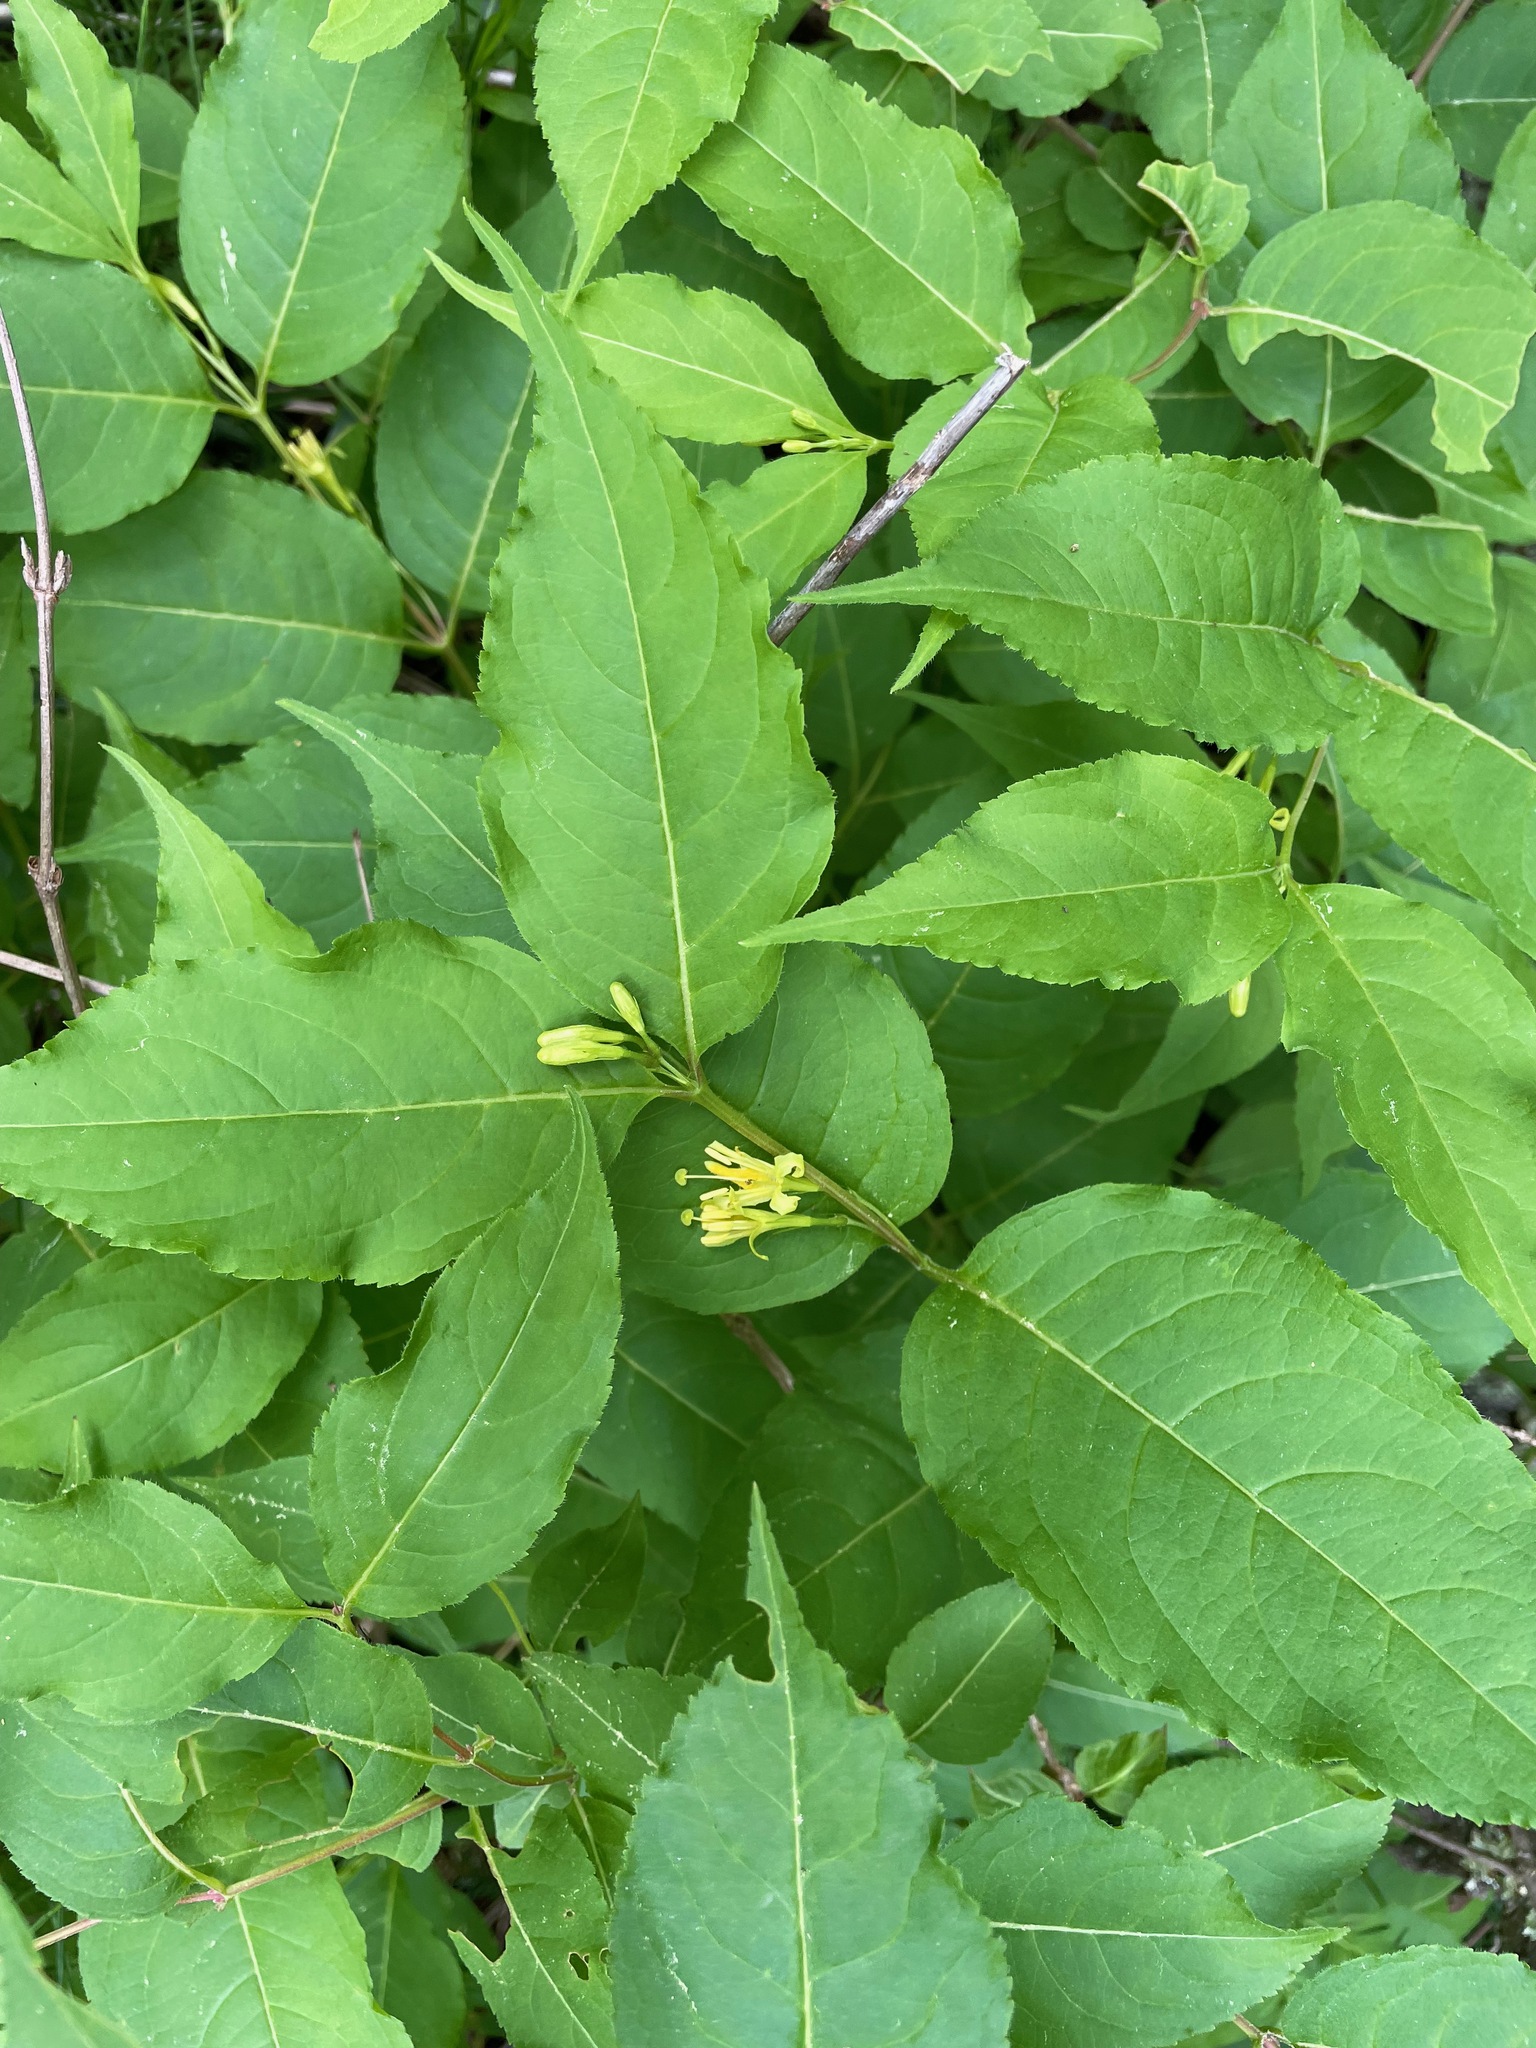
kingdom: Plantae
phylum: Tracheophyta
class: Magnoliopsida
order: Dipsacales
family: Caprifoliaceae
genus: Diervilla
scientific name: Diervilla lonicera
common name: Bush-honeysuckle
